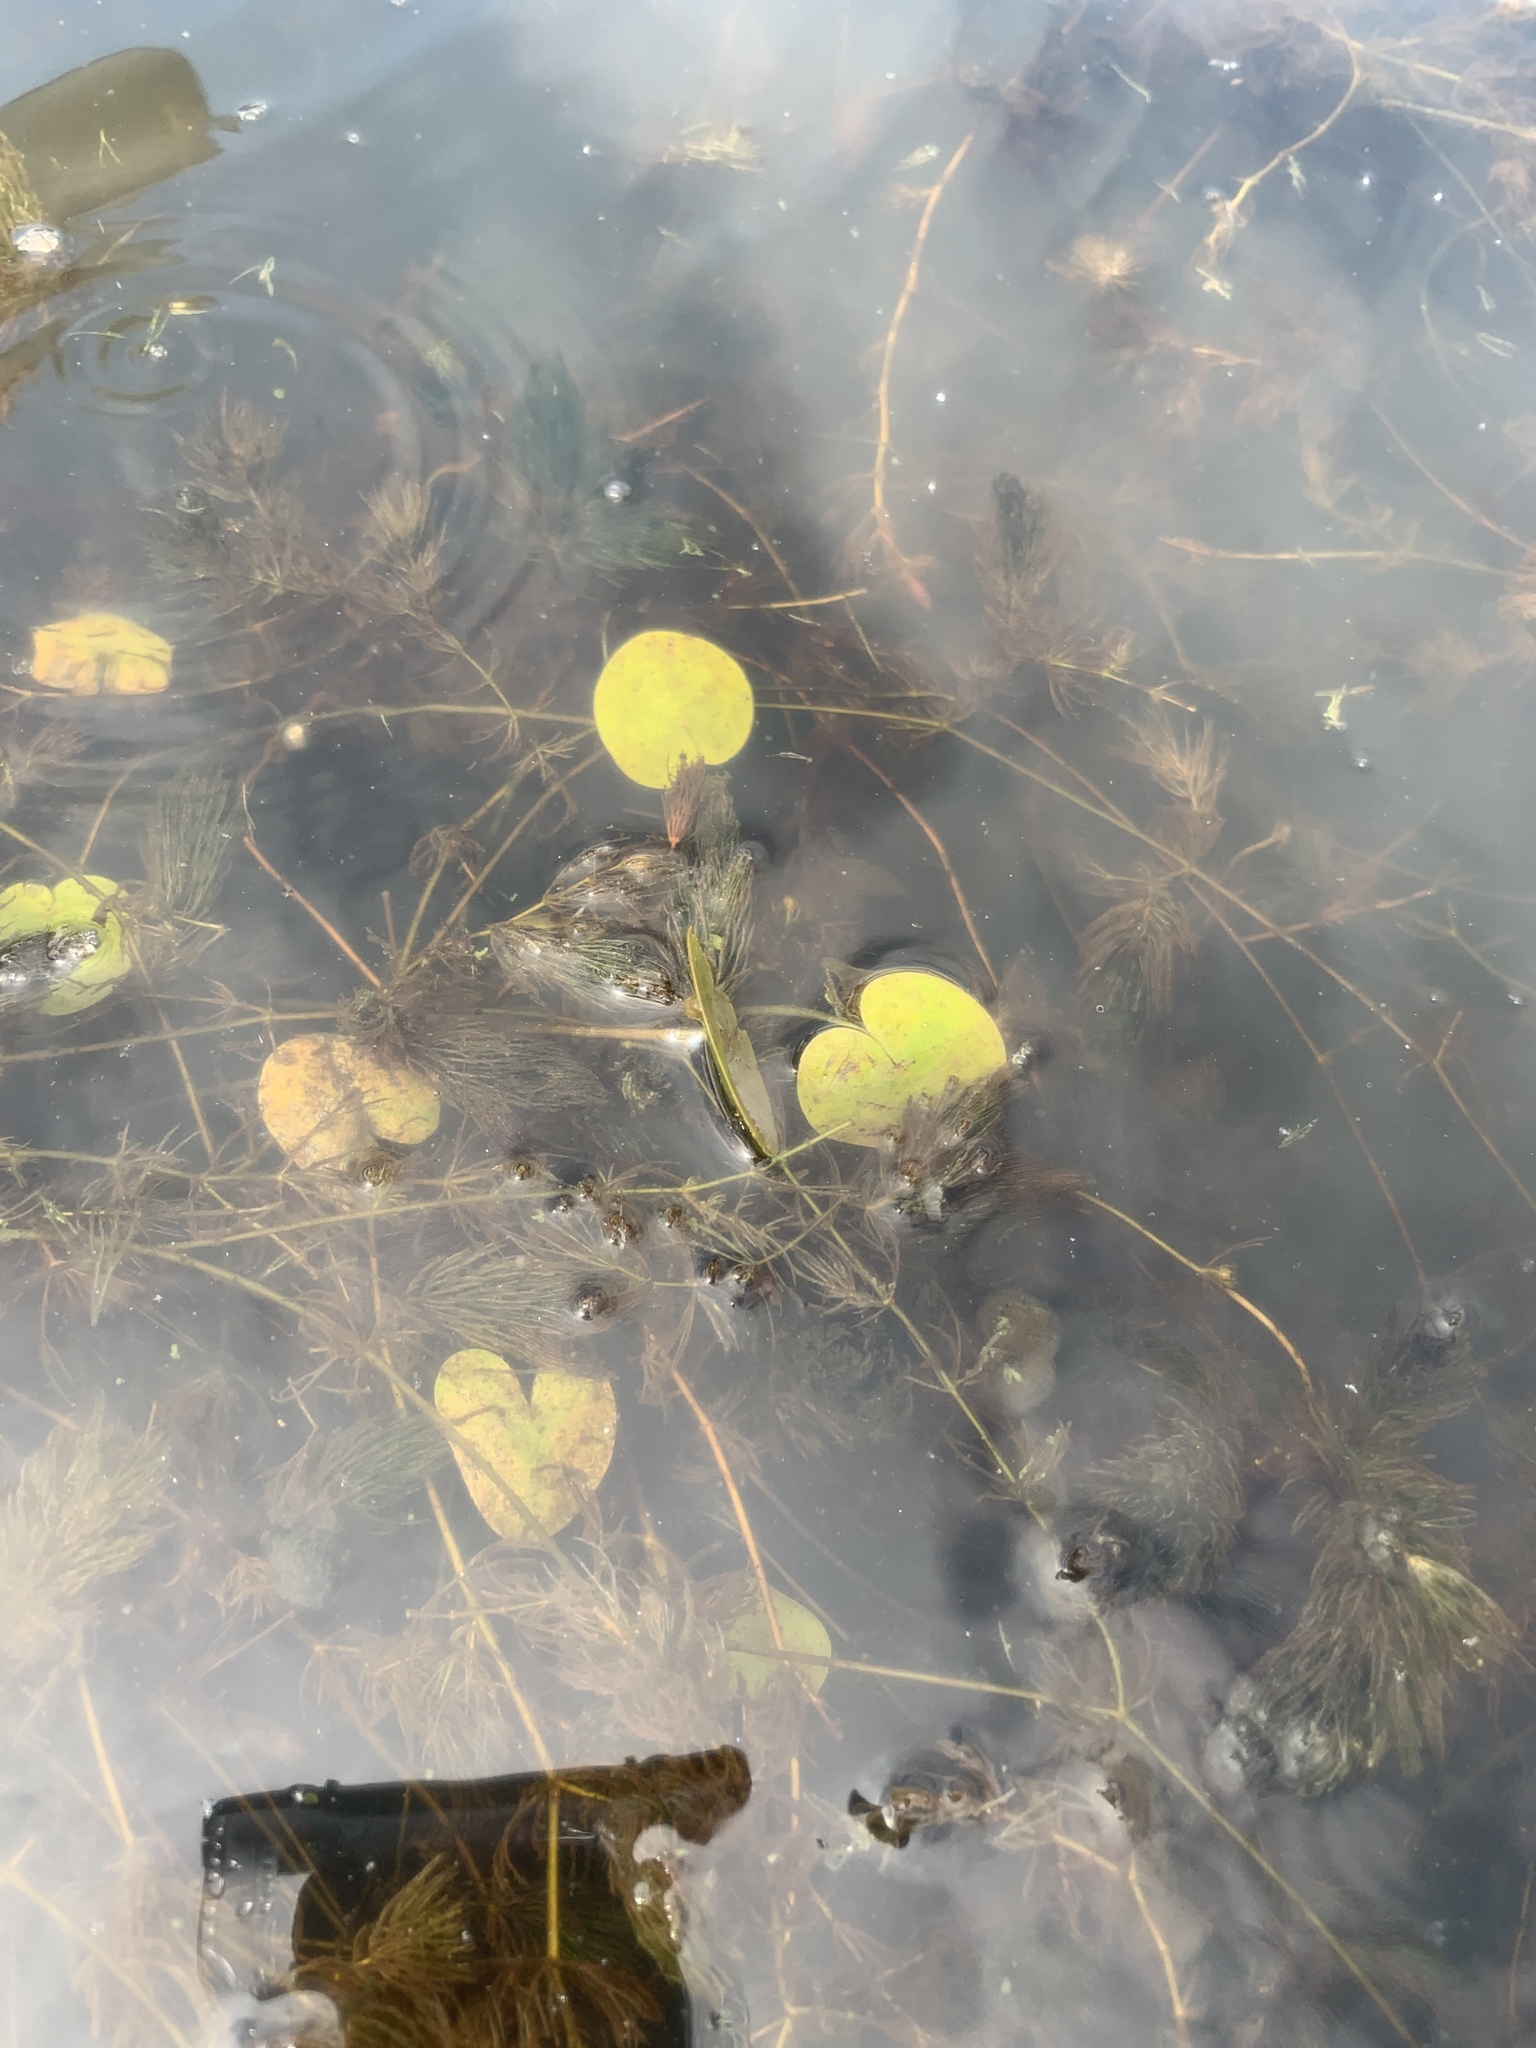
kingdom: Plantae
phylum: Tracheophyta
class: Liliopsida
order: Alismatales
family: Hydrocharitaceae
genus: Hydrocharis
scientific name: Hydrocharis morsus-ranae
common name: Frogbit
